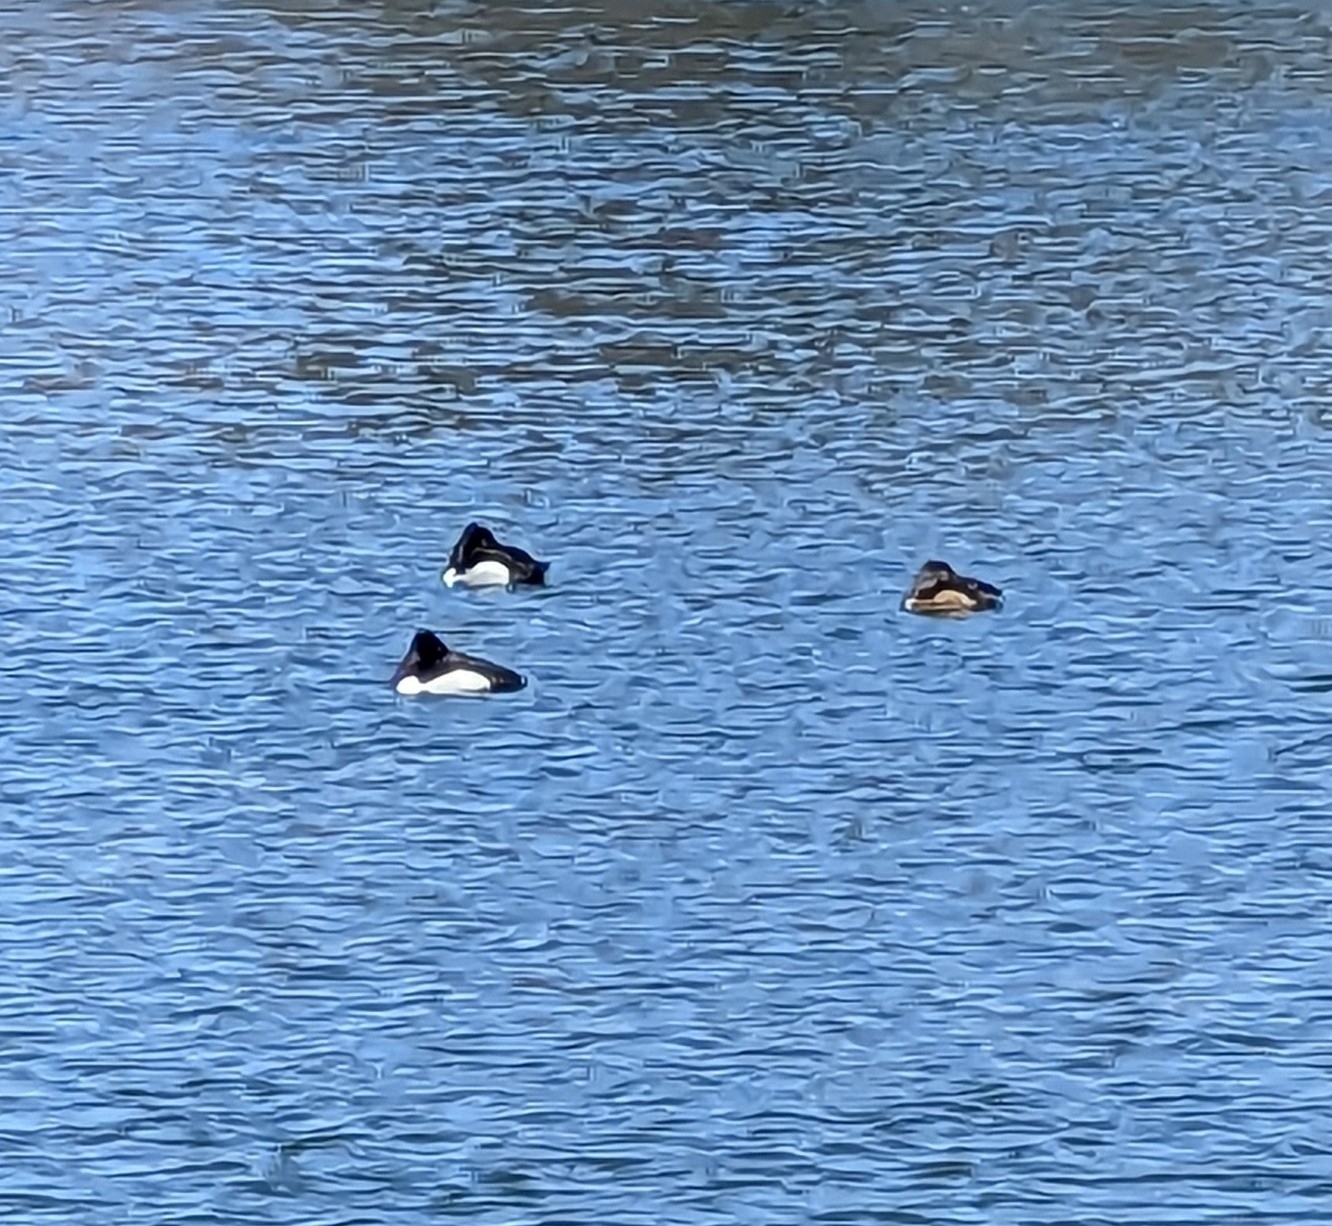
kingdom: Animalia
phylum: Chordata
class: Aves
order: Anseriformes
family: Anatidae
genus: Aythya
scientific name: Aythya collaris
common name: Ring-necked duck
